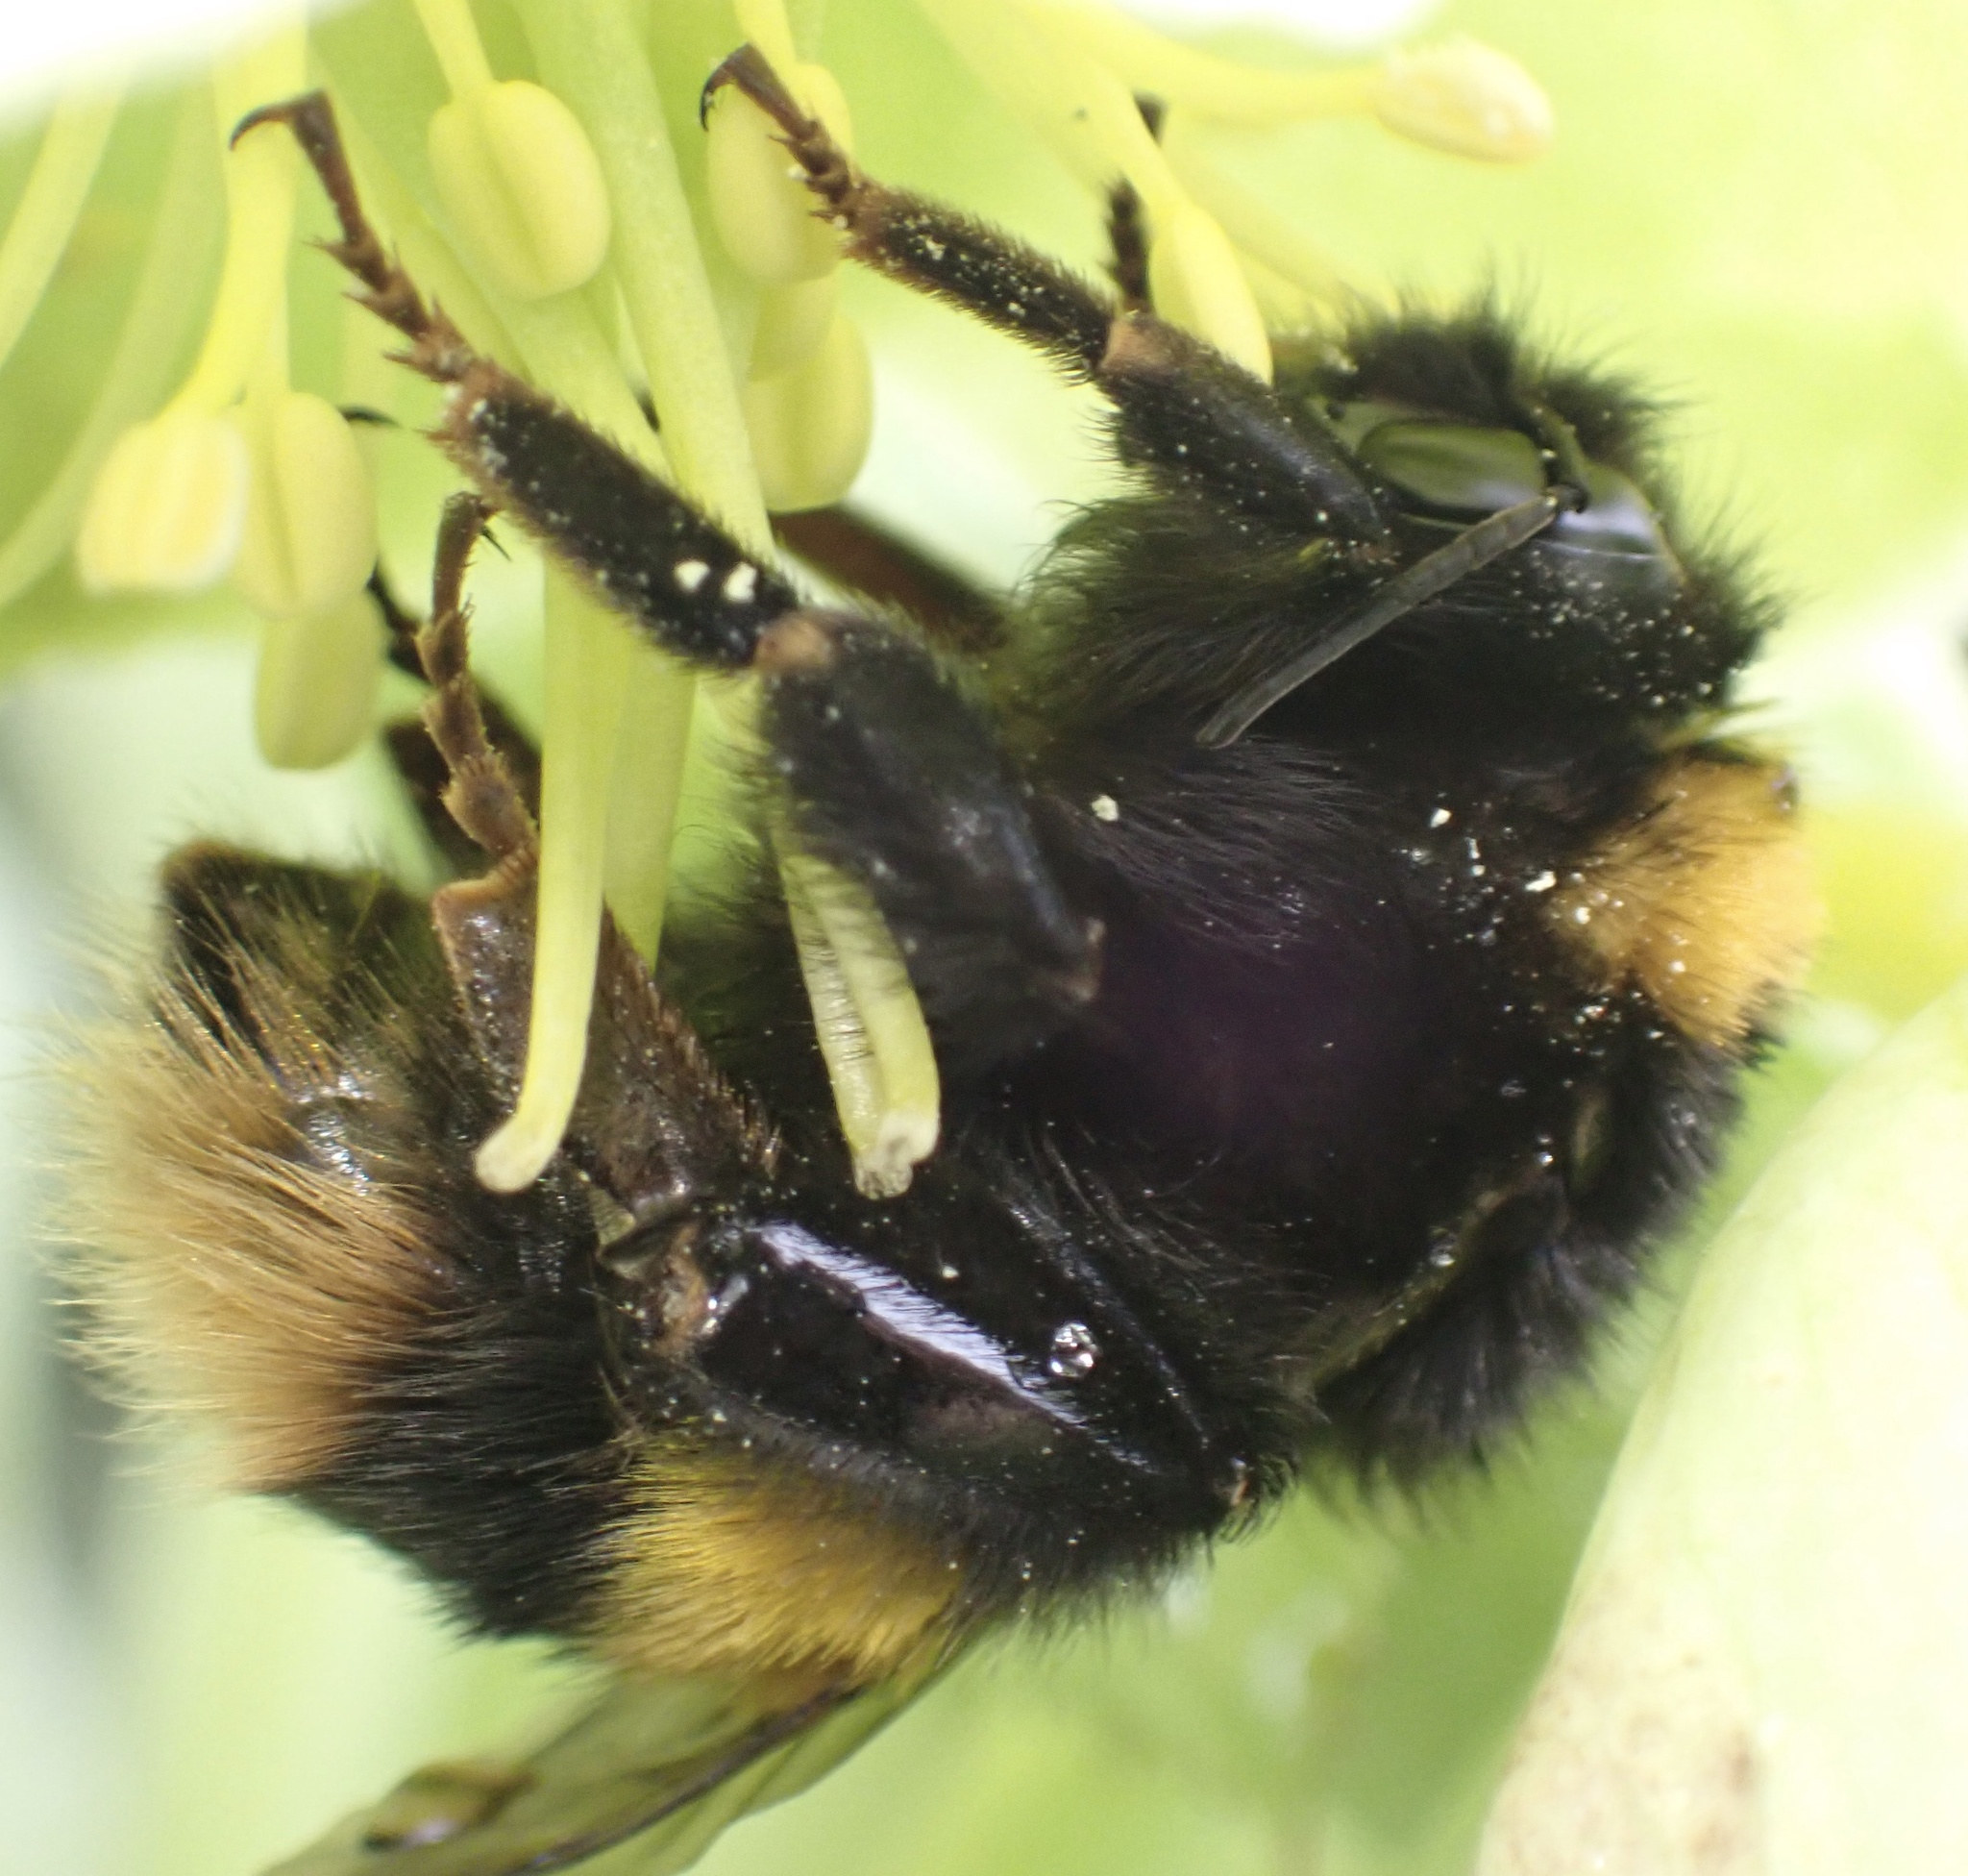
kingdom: Animalia
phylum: Arthropoda
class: Insecta
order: Hymenoptera
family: Apidae
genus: Bombus
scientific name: Bombus terrestris
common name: Buff-tailed bumblebee
